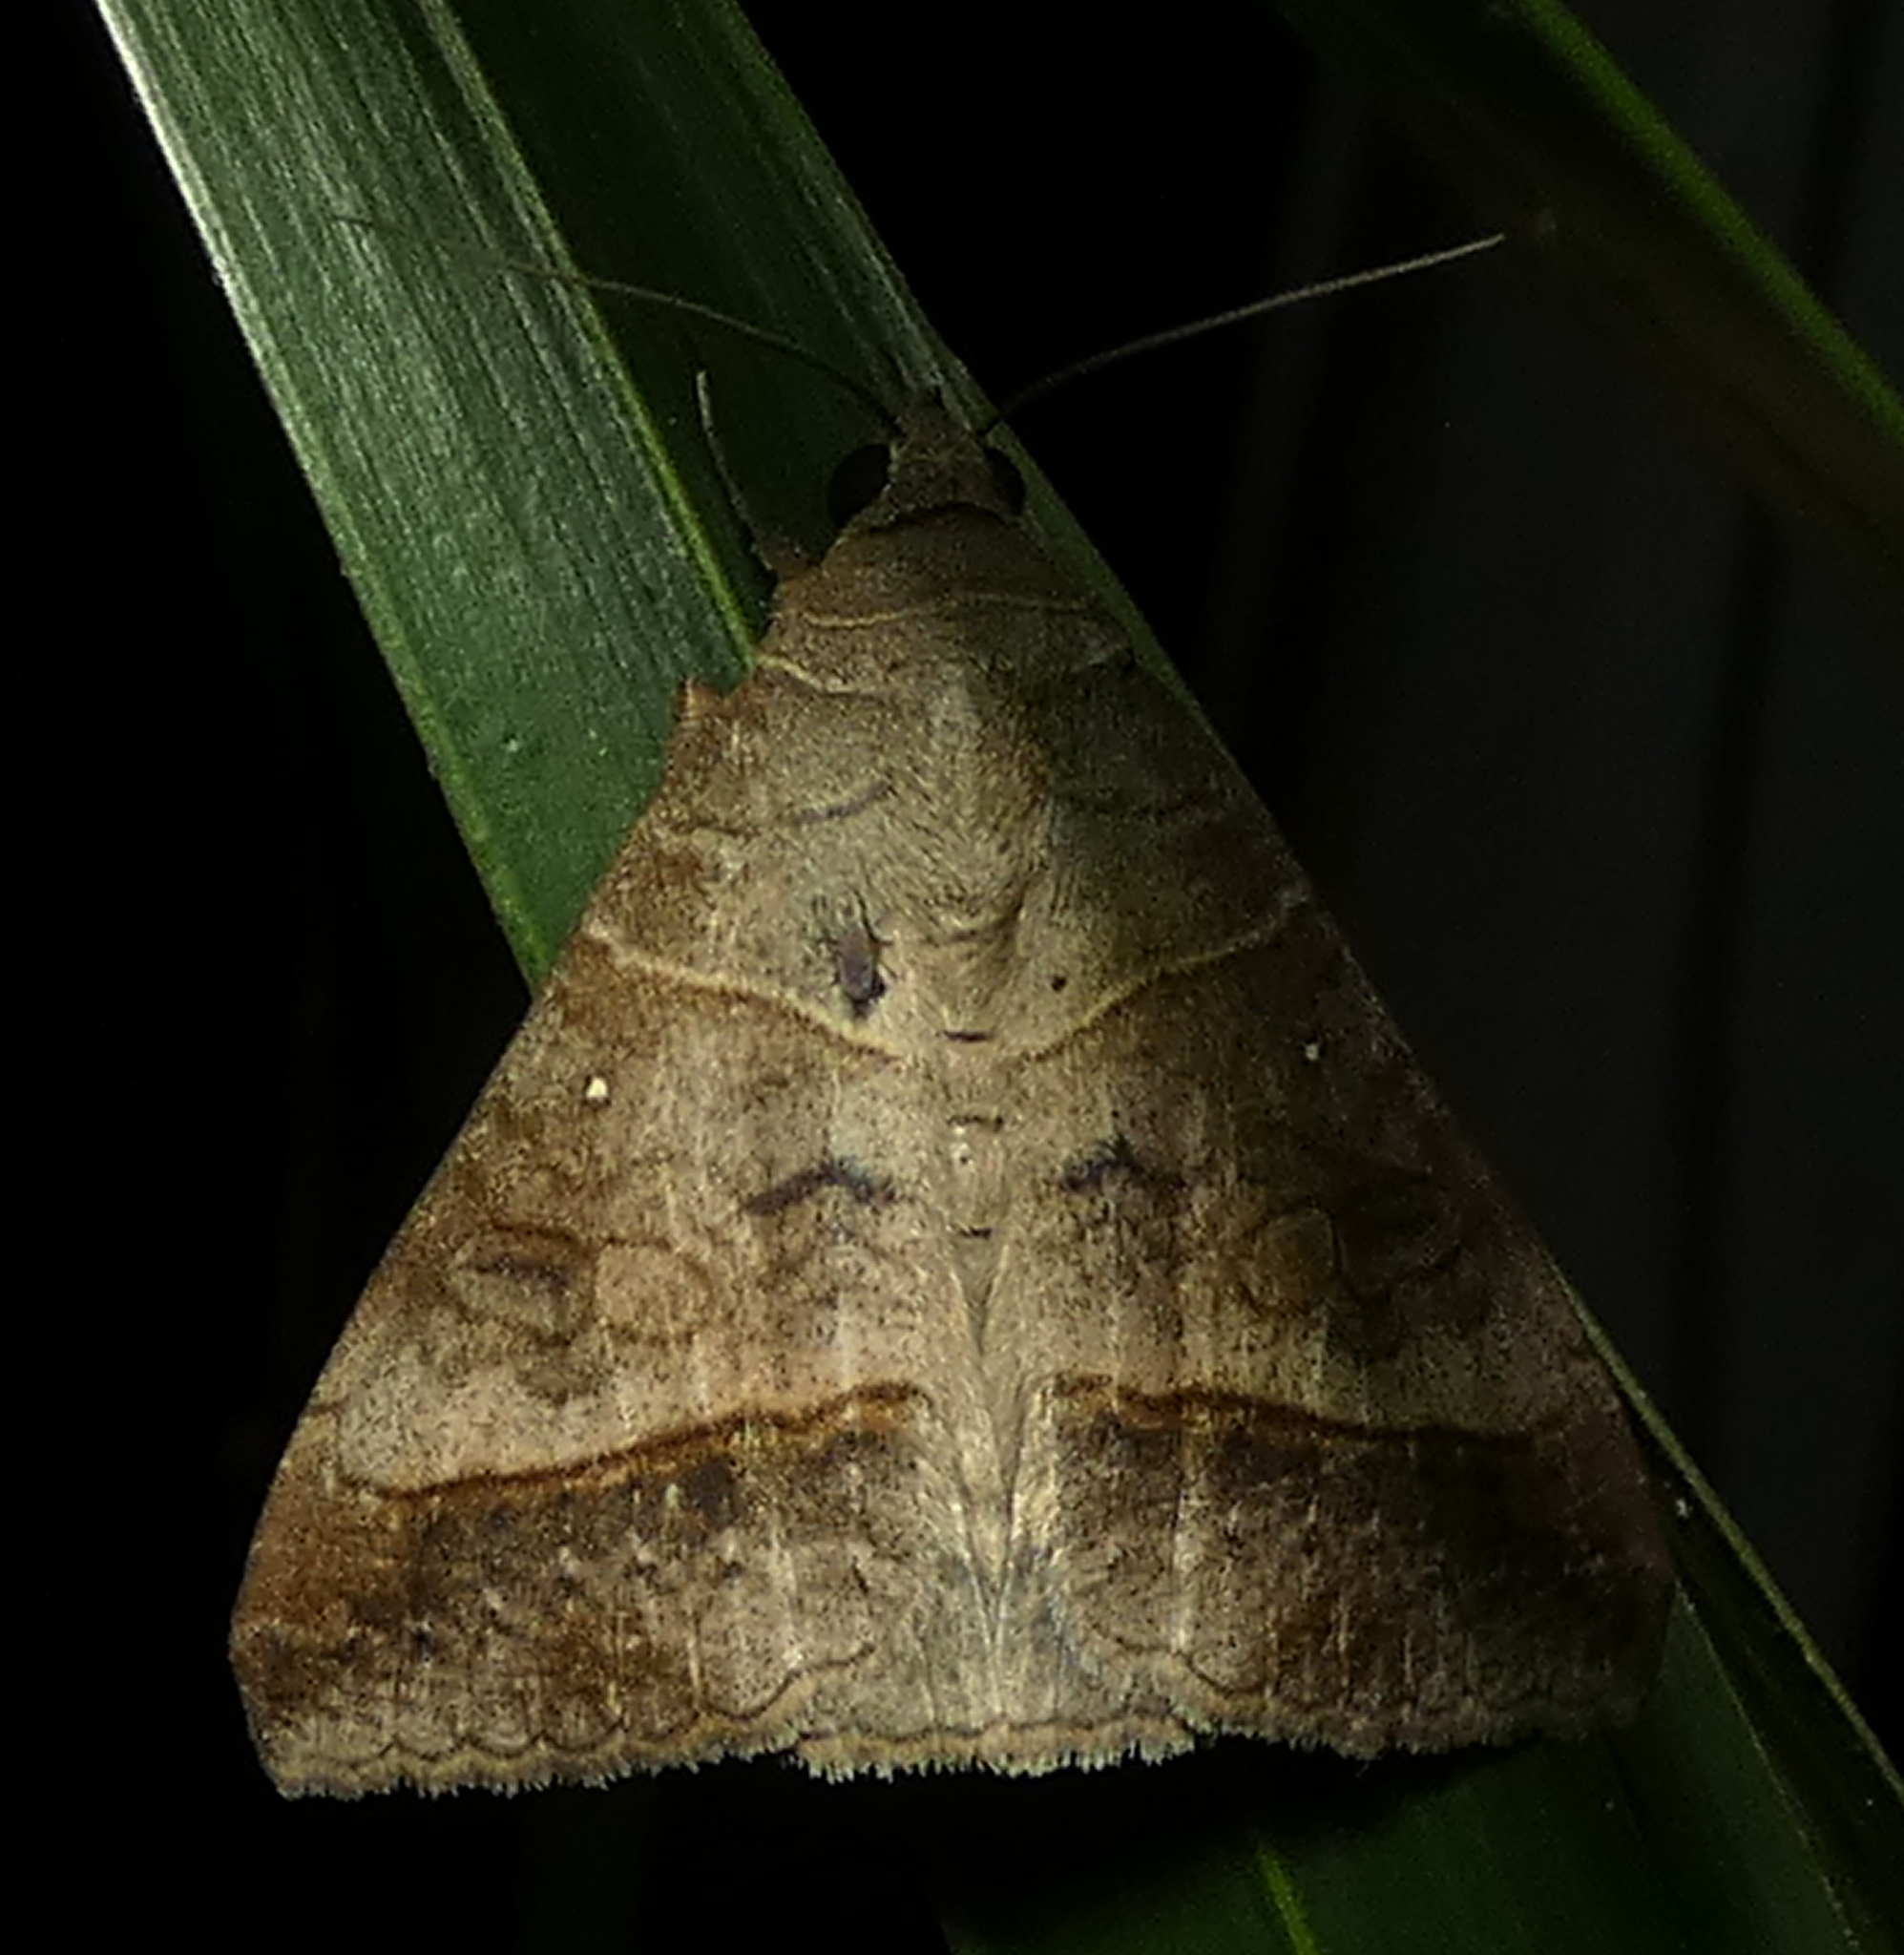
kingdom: Animalia
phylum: Arthropoda
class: Insecta
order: Lepidoptera
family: Erebidae
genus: Mocis
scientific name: Mocis latipes
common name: Striped grass looper
